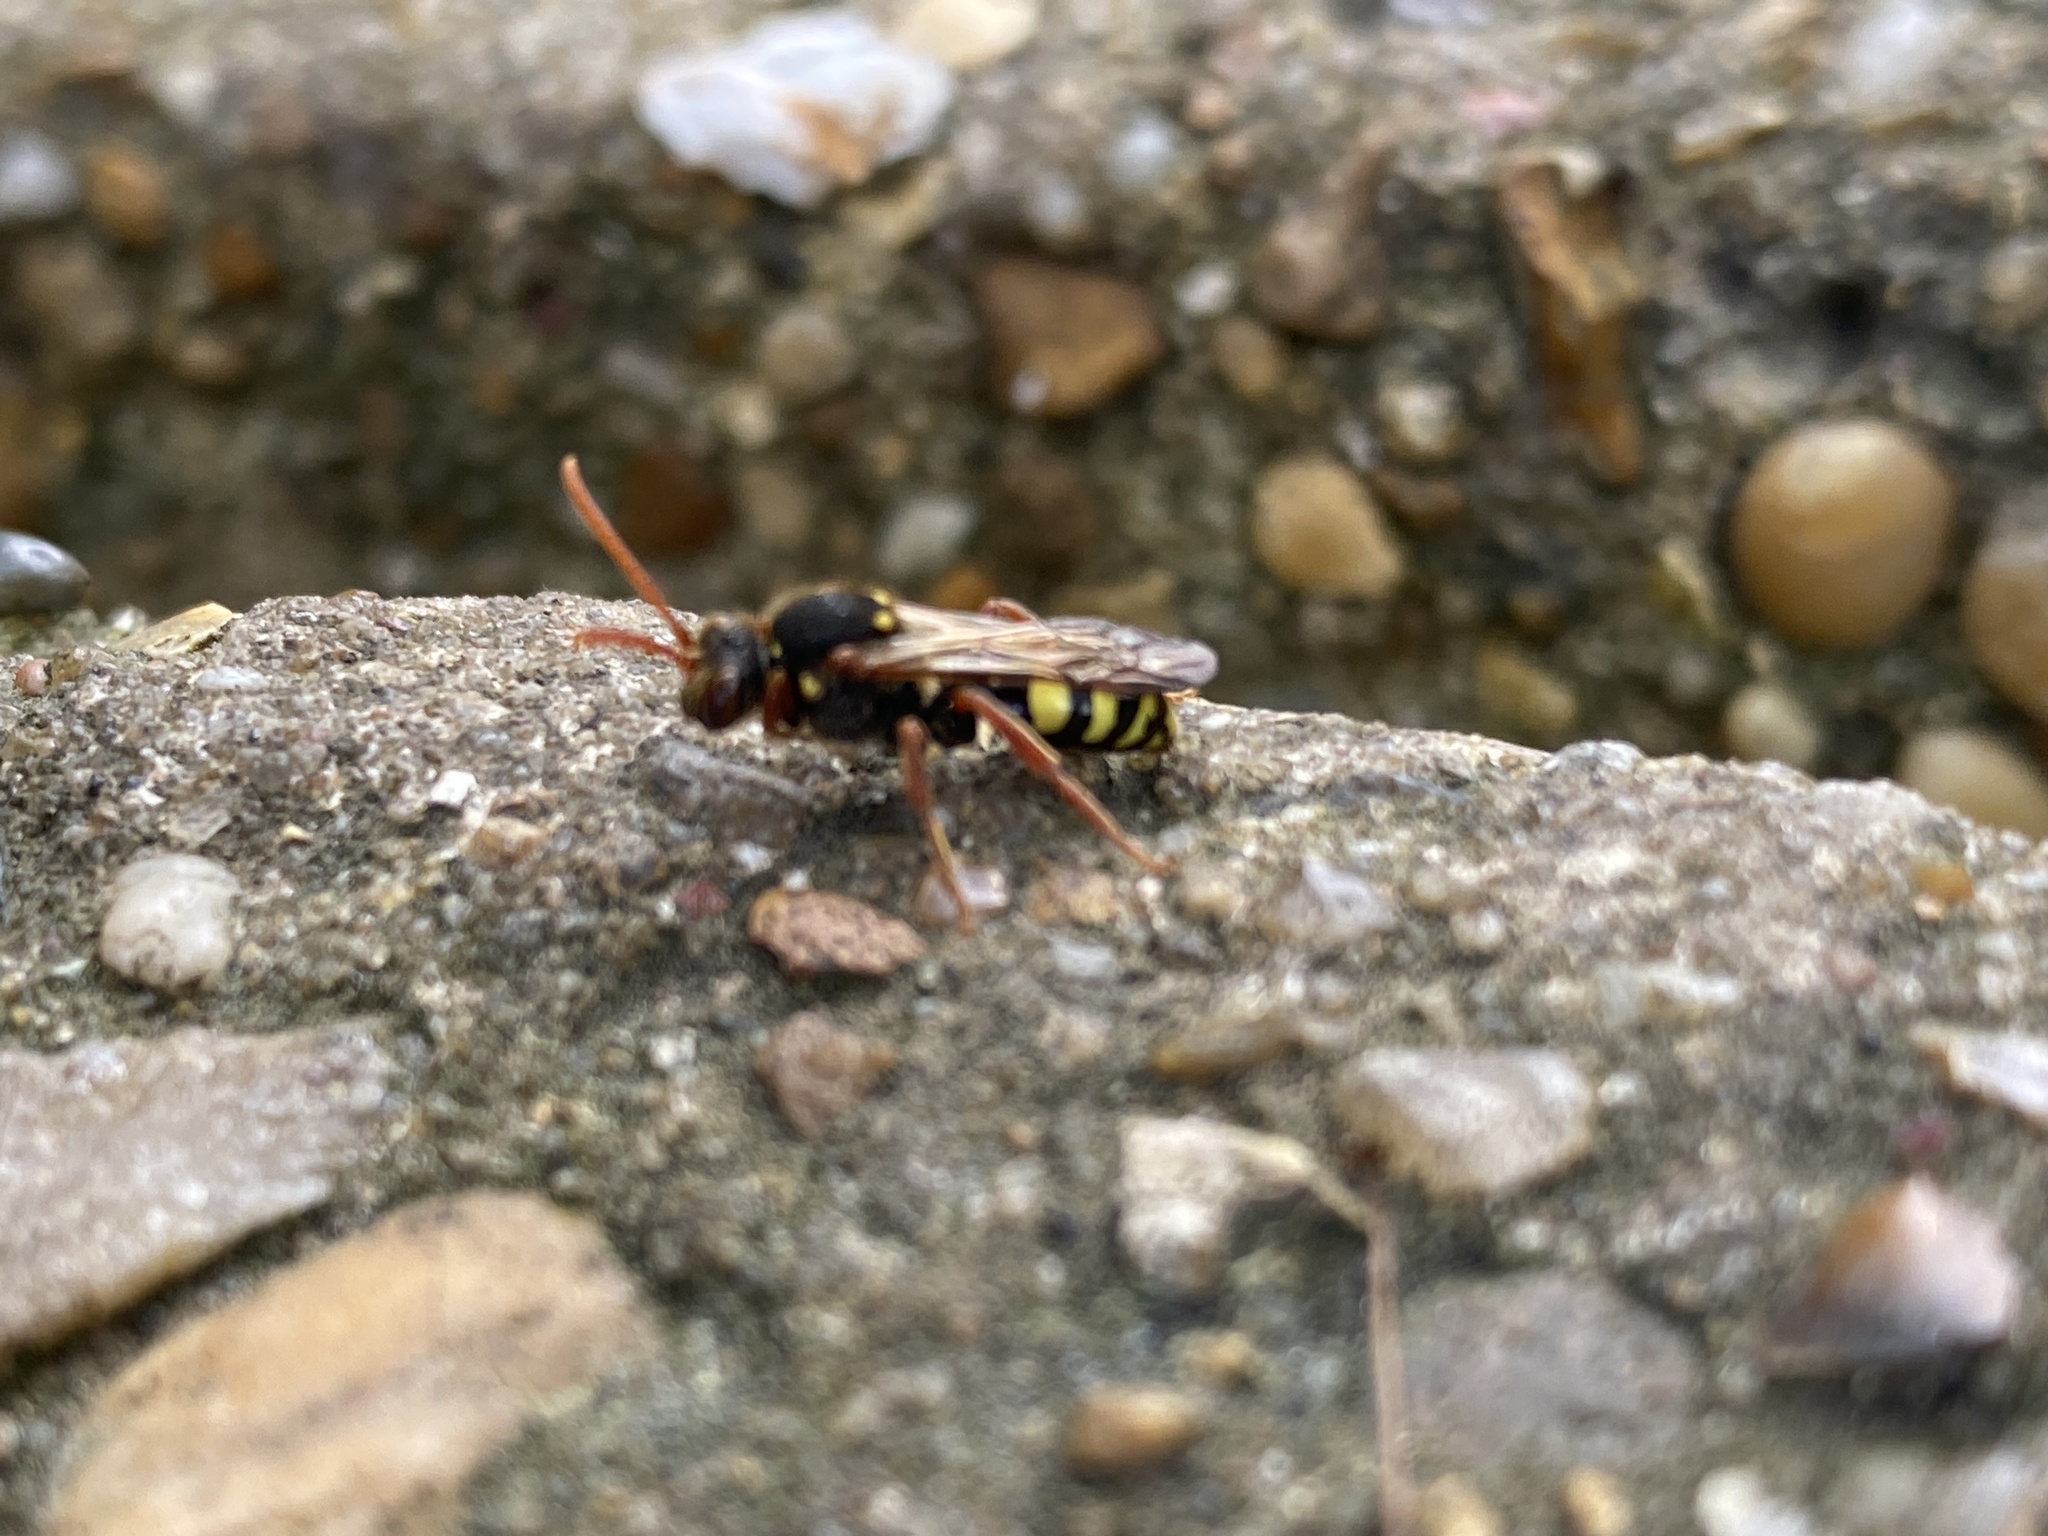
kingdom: Animalia
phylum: Arthropoda
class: Insecta
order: Hymenoptera
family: Apidae
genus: Nomada
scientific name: Nomada marshamella
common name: Marsham's nomad bee
